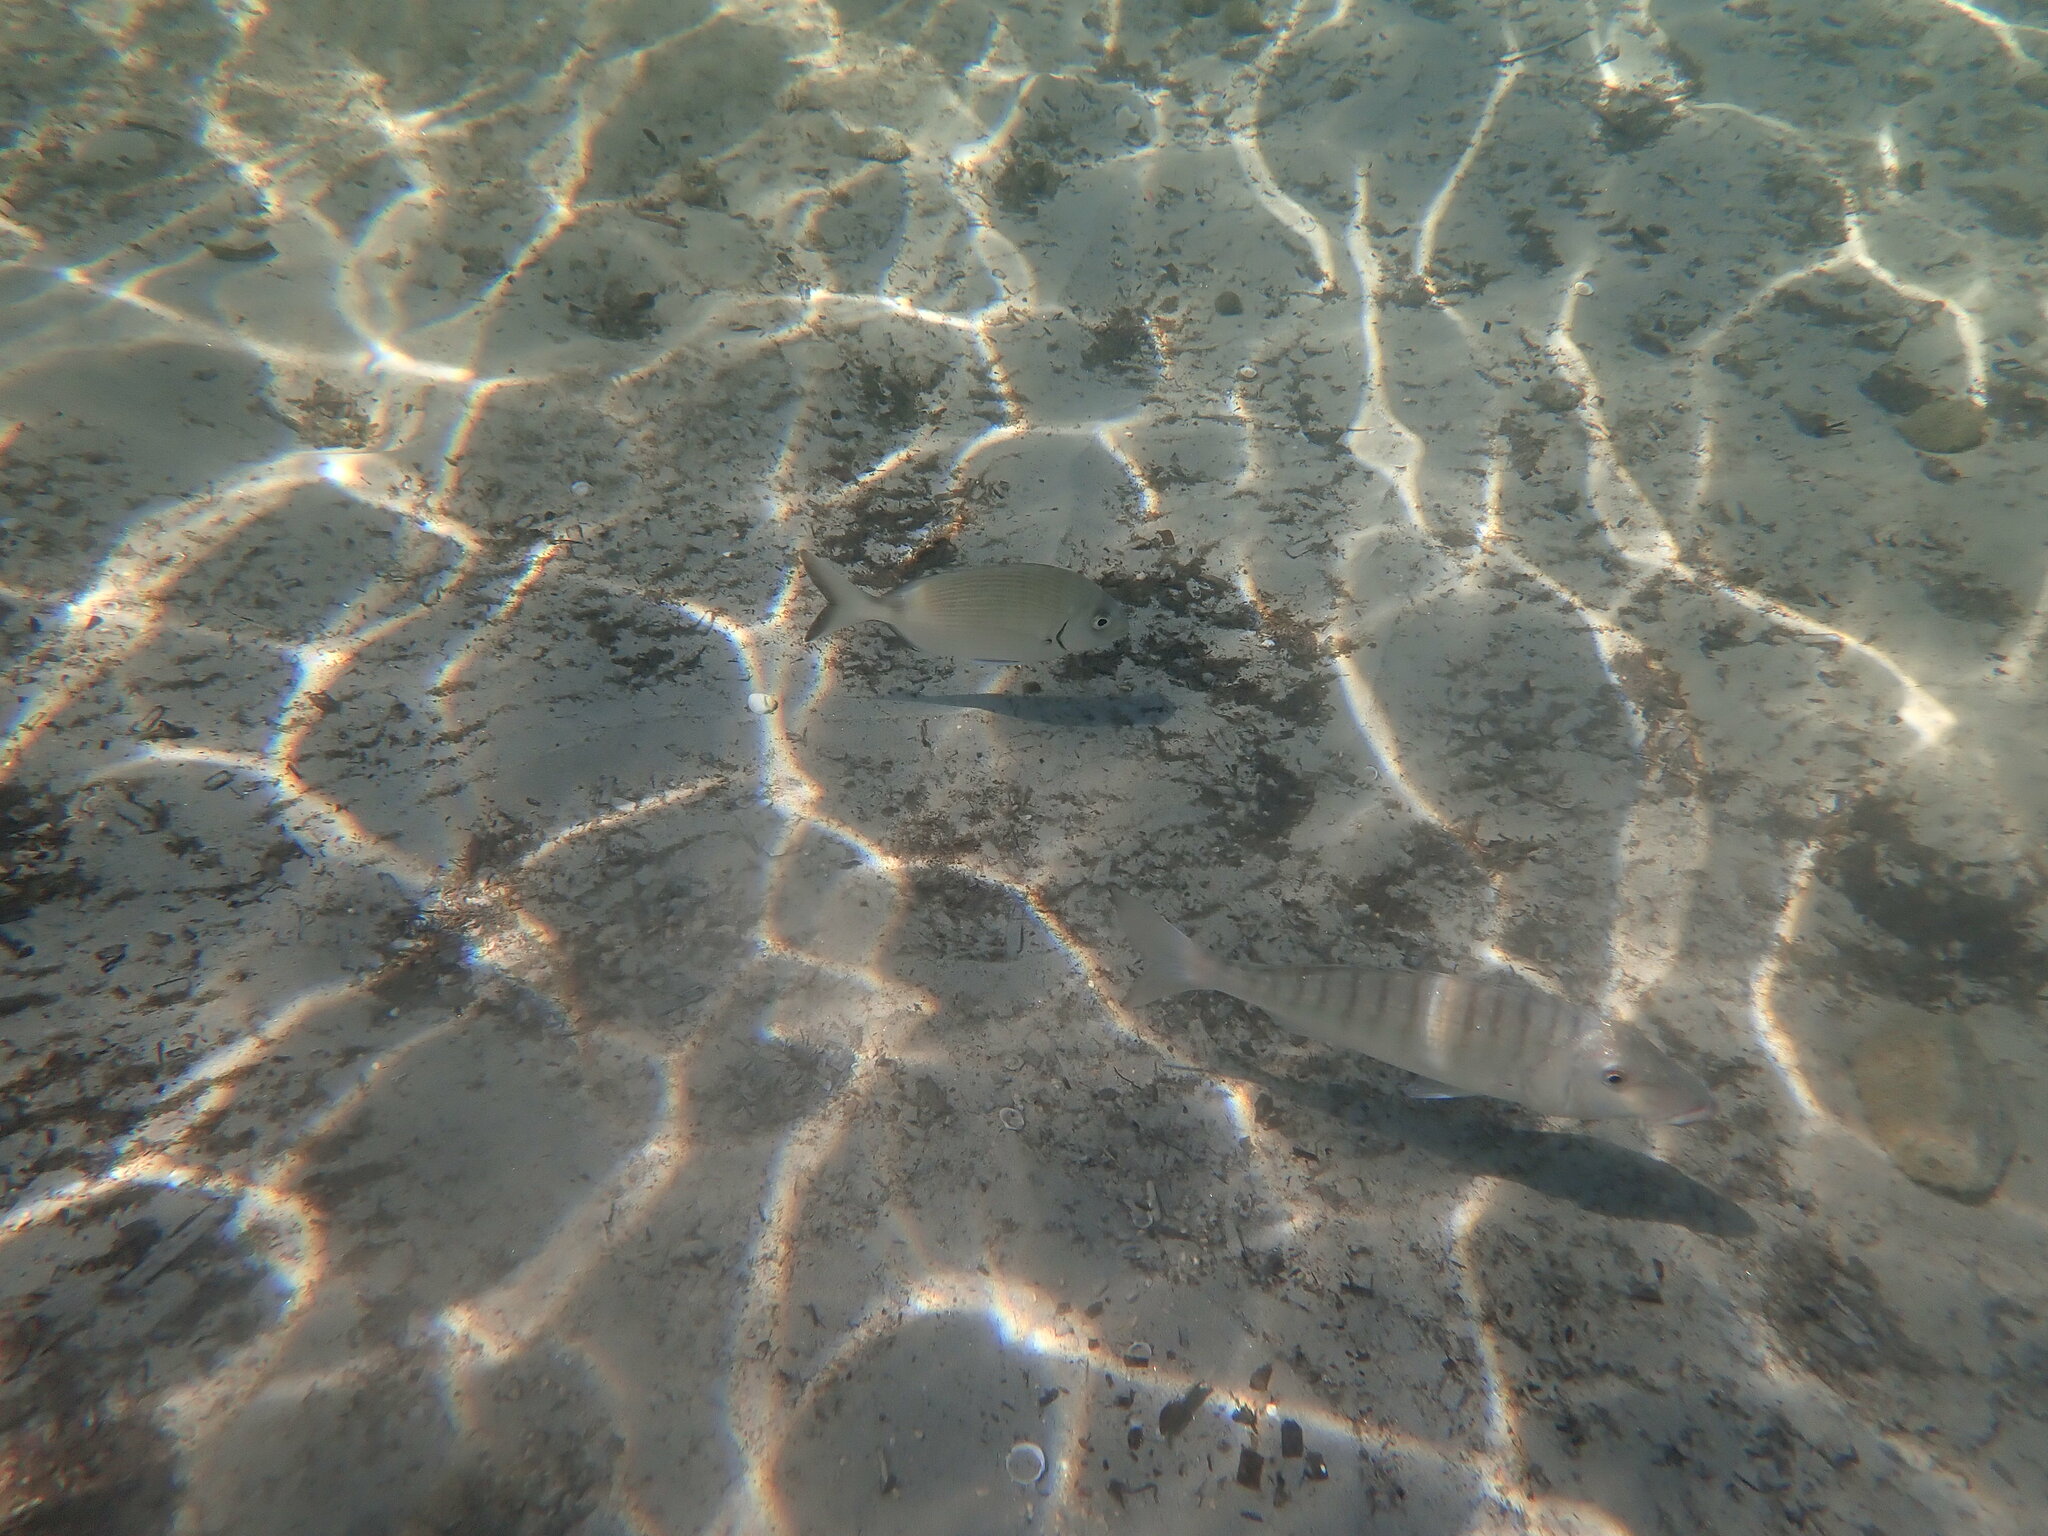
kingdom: Animalia
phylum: Chordata
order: Perciformes
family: Sparidae
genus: Diplodus
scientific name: Diplodus sargus
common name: White seabream
